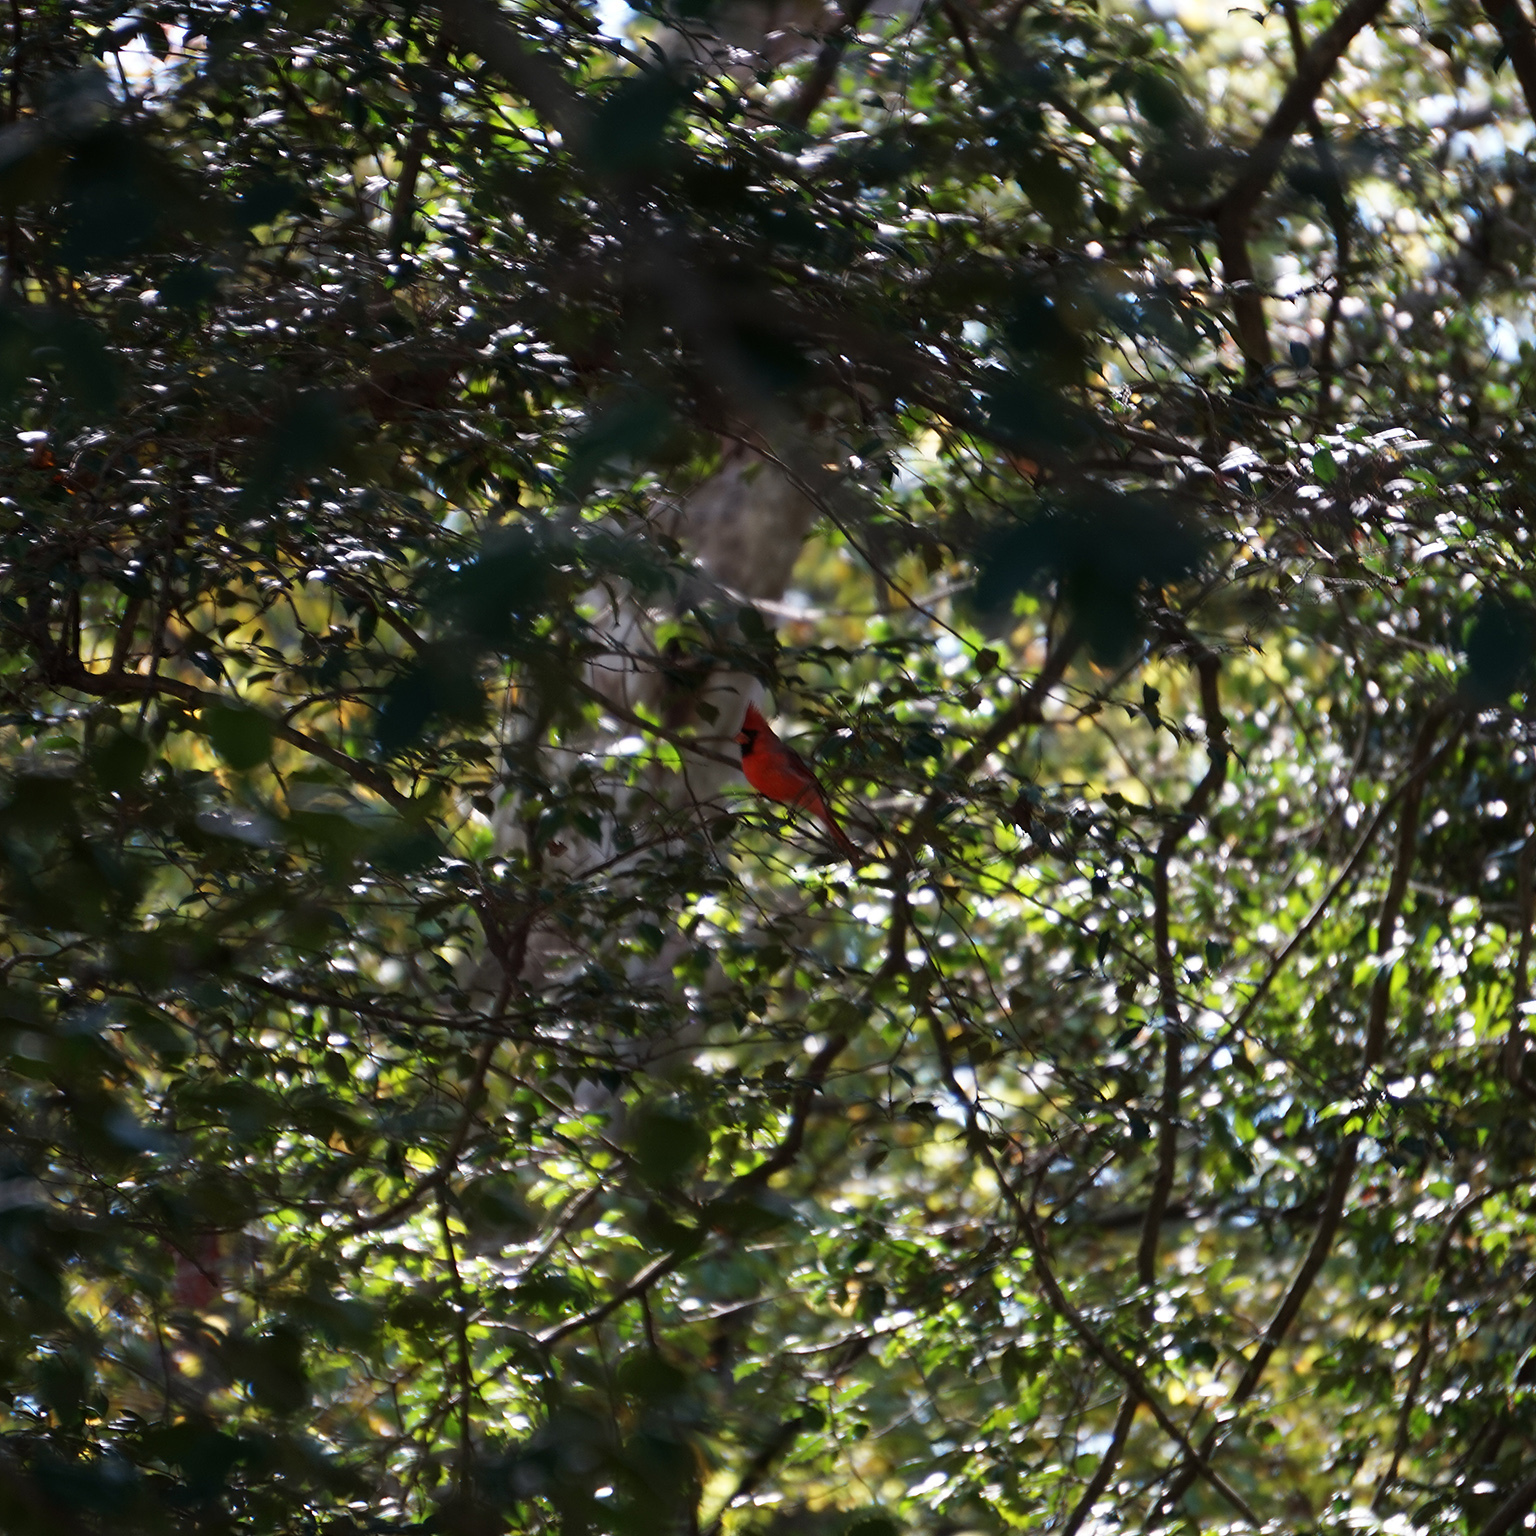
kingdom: Animalia
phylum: Chordata
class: Aves
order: Passeriformes
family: Cardinalidae
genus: Cardinalis
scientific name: Cardinalis cardinalis
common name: Northern cardinal
